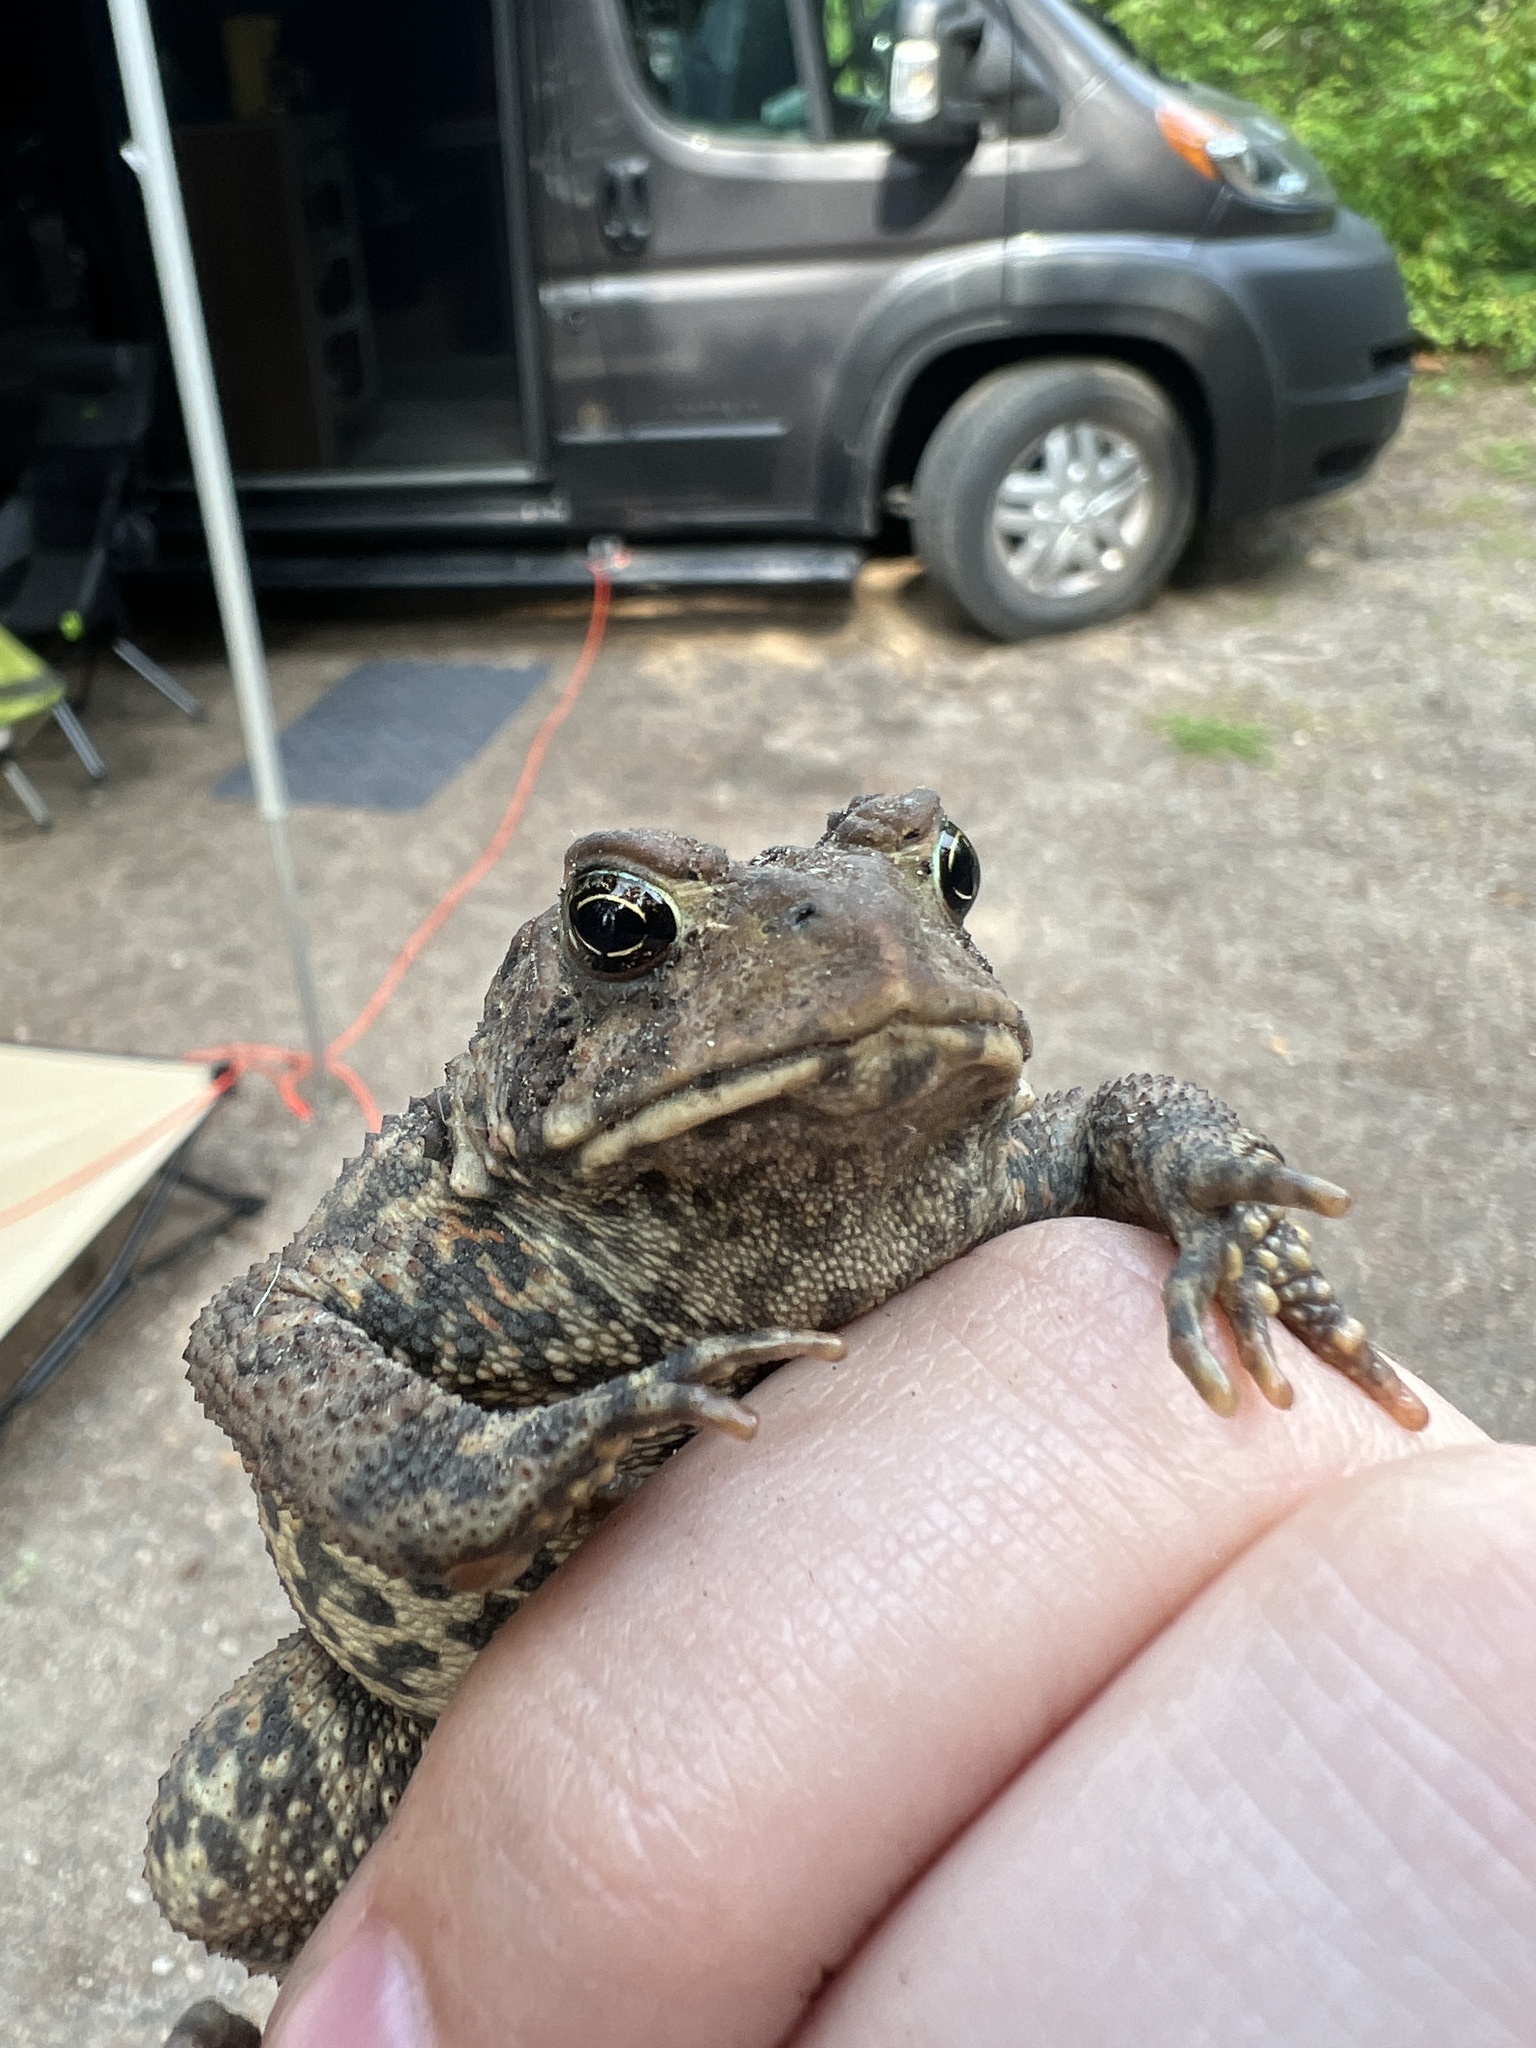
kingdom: Animalia
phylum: Chordata
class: Amphibia
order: Anura
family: Bufonidae
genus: Anaxyrus
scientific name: Anaxyrus americanus
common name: American toad
